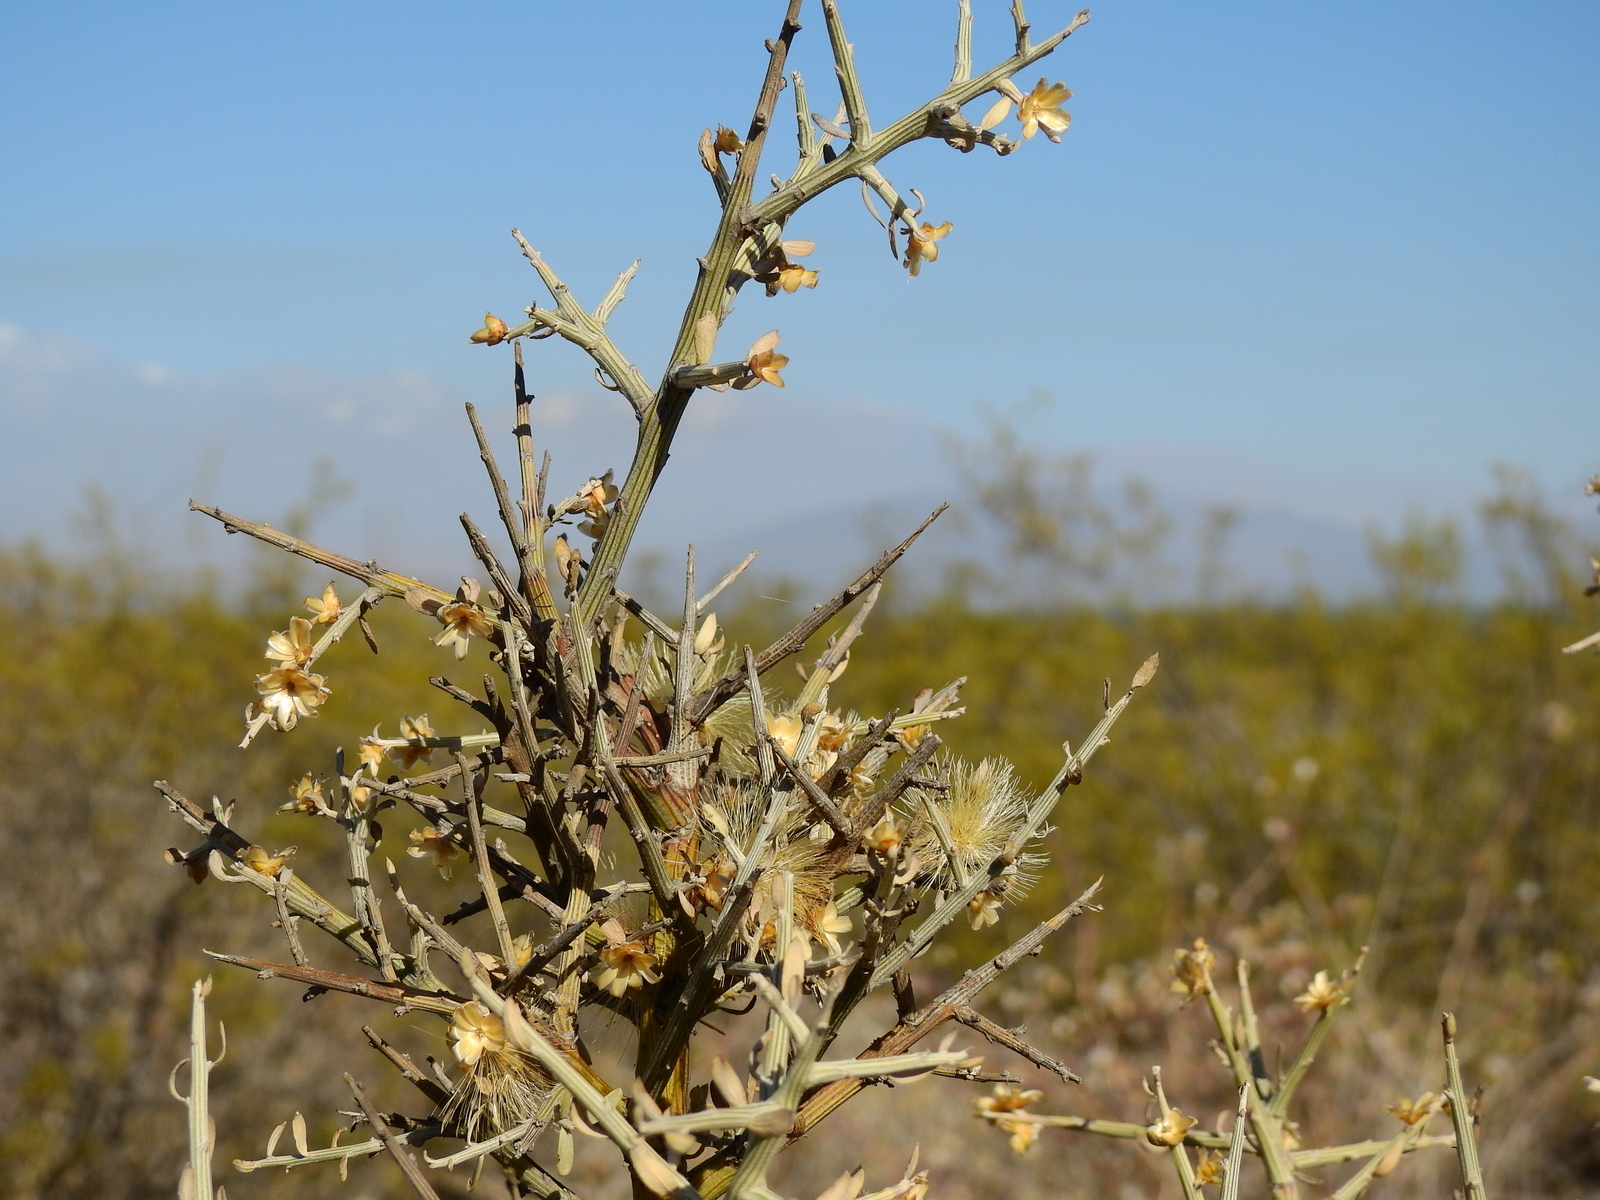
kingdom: Plantae
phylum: Tracheophyta
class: Magnoliopsida
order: Asterales
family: Asteraceae
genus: Cyclolepis
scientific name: Cyclolepis genistoides
